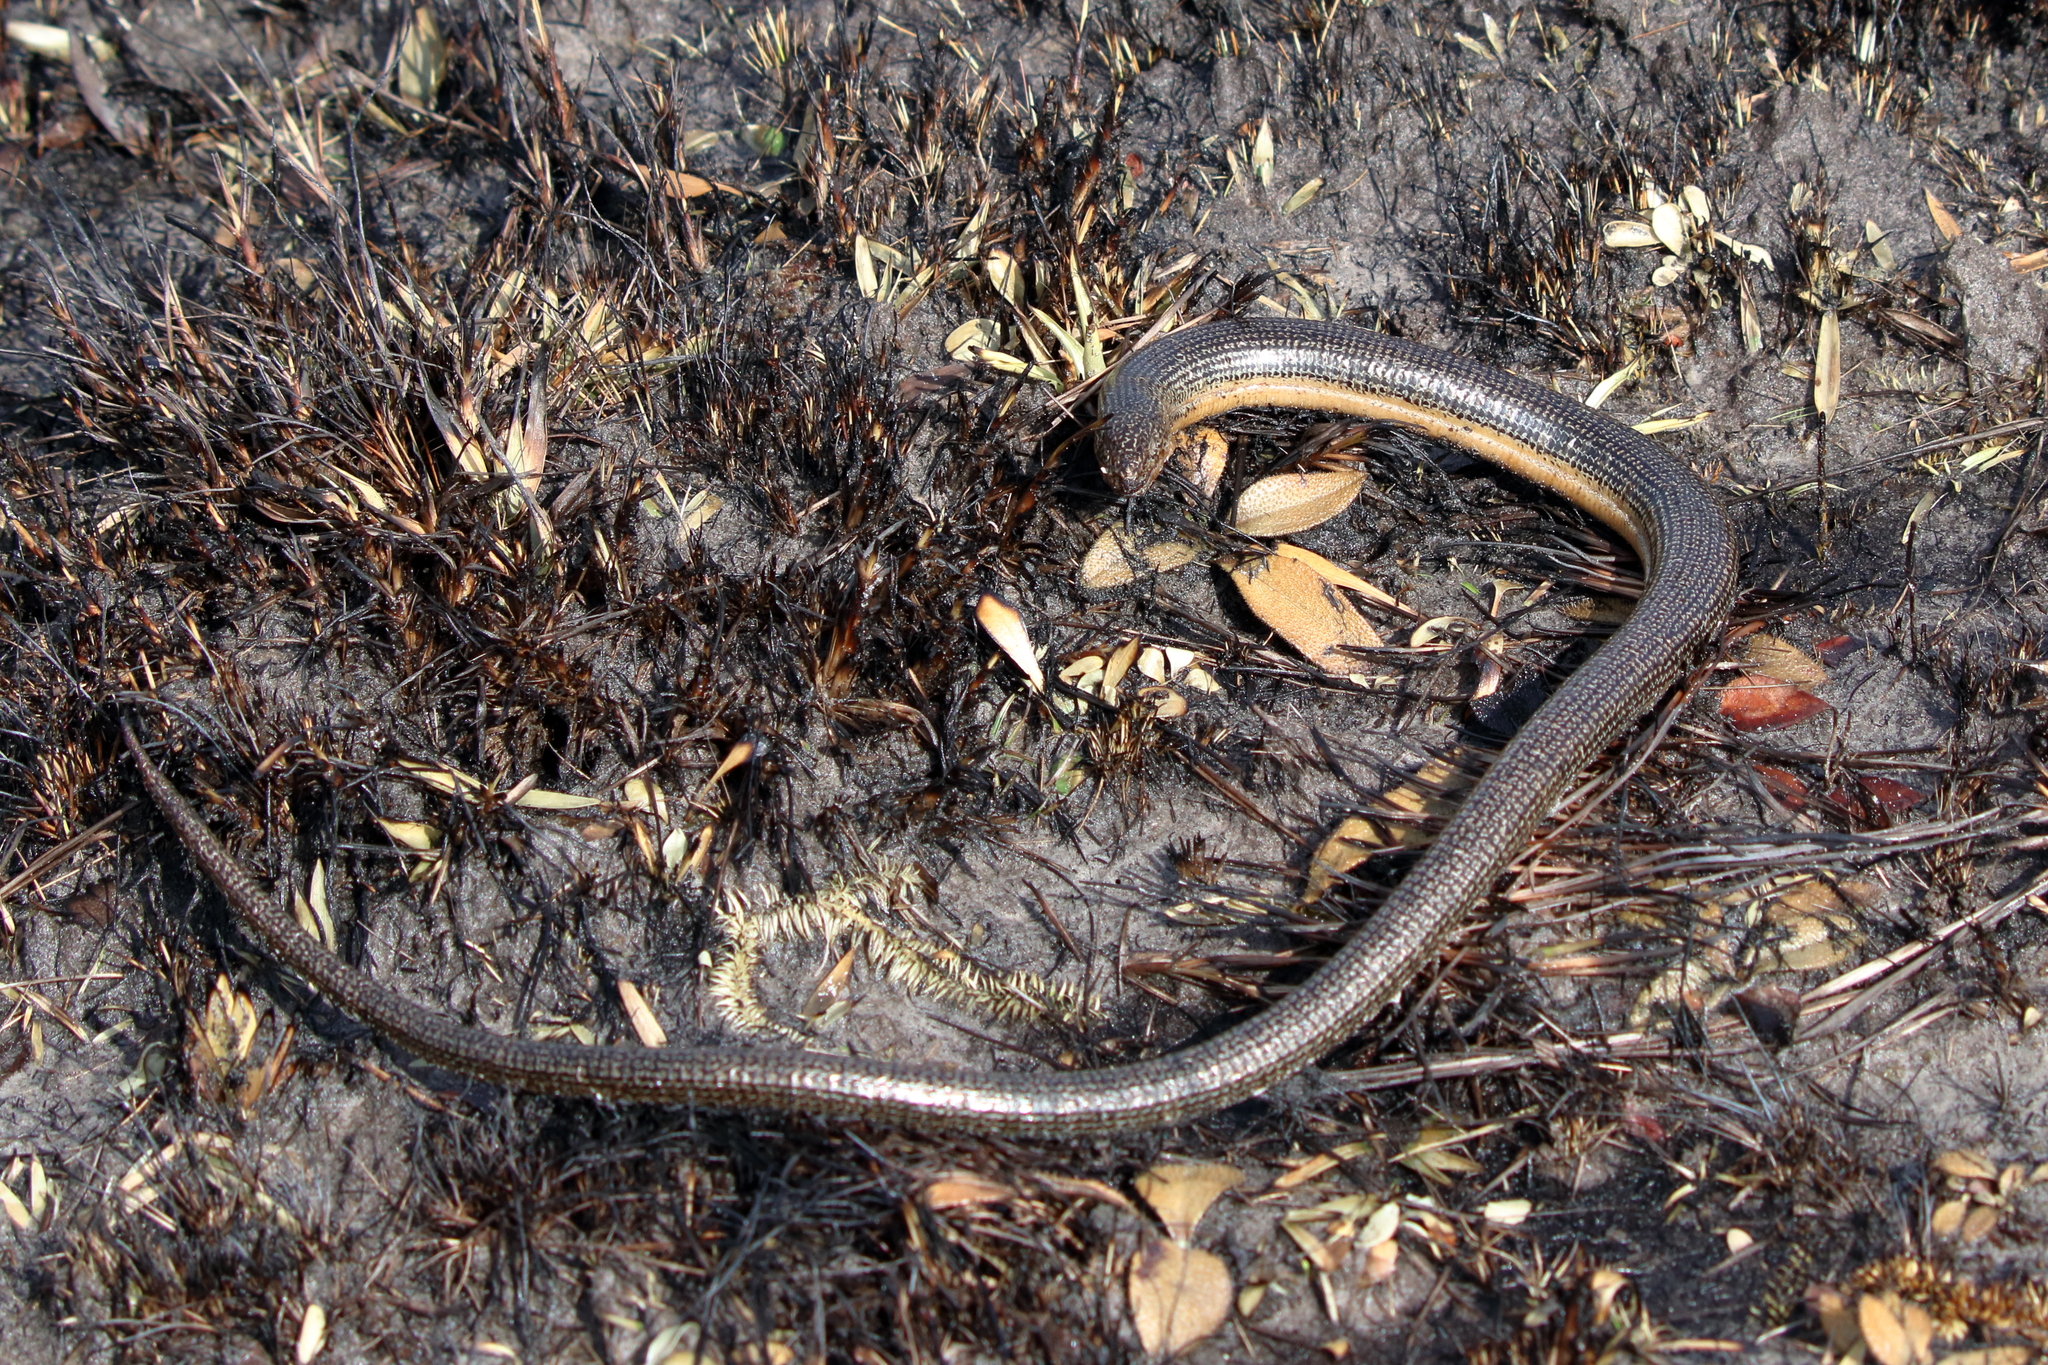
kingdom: Animalia
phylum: Chordata
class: Squamata
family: Anguidae
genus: Ophisaurus
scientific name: Ophisaurus ventralis
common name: Eastern glass lizard
